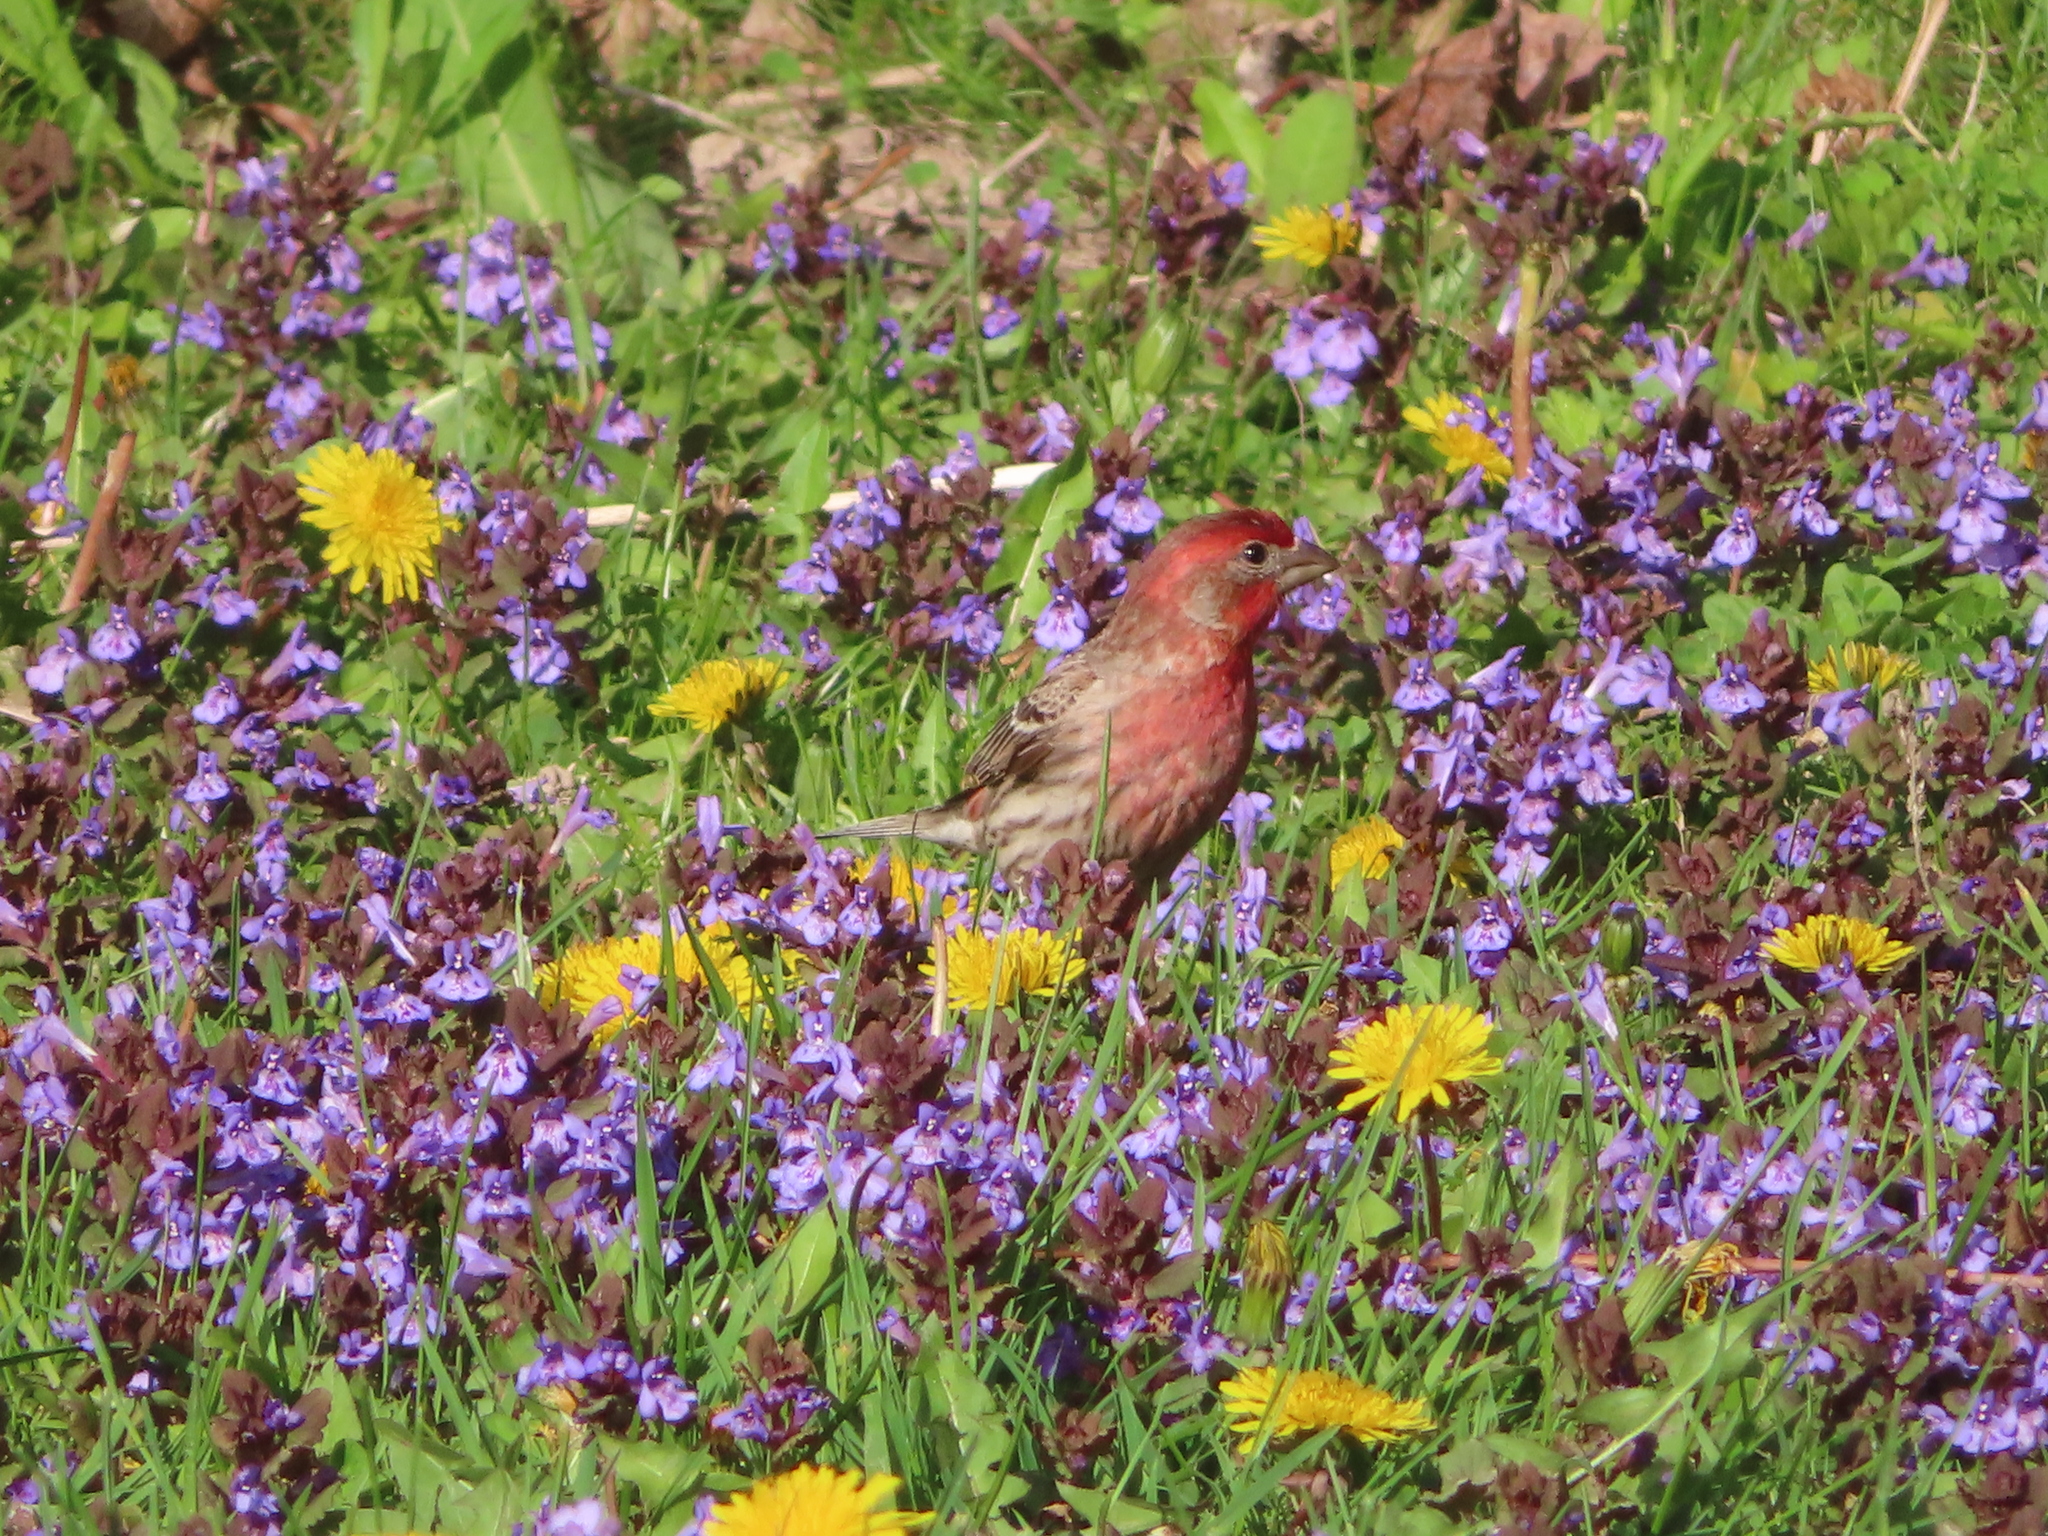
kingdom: Animalia
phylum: Chordata
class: Aves
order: Passeriformes
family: Fringillidae
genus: Haemorhous
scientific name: Haemorhous mexicanus
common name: House finch
